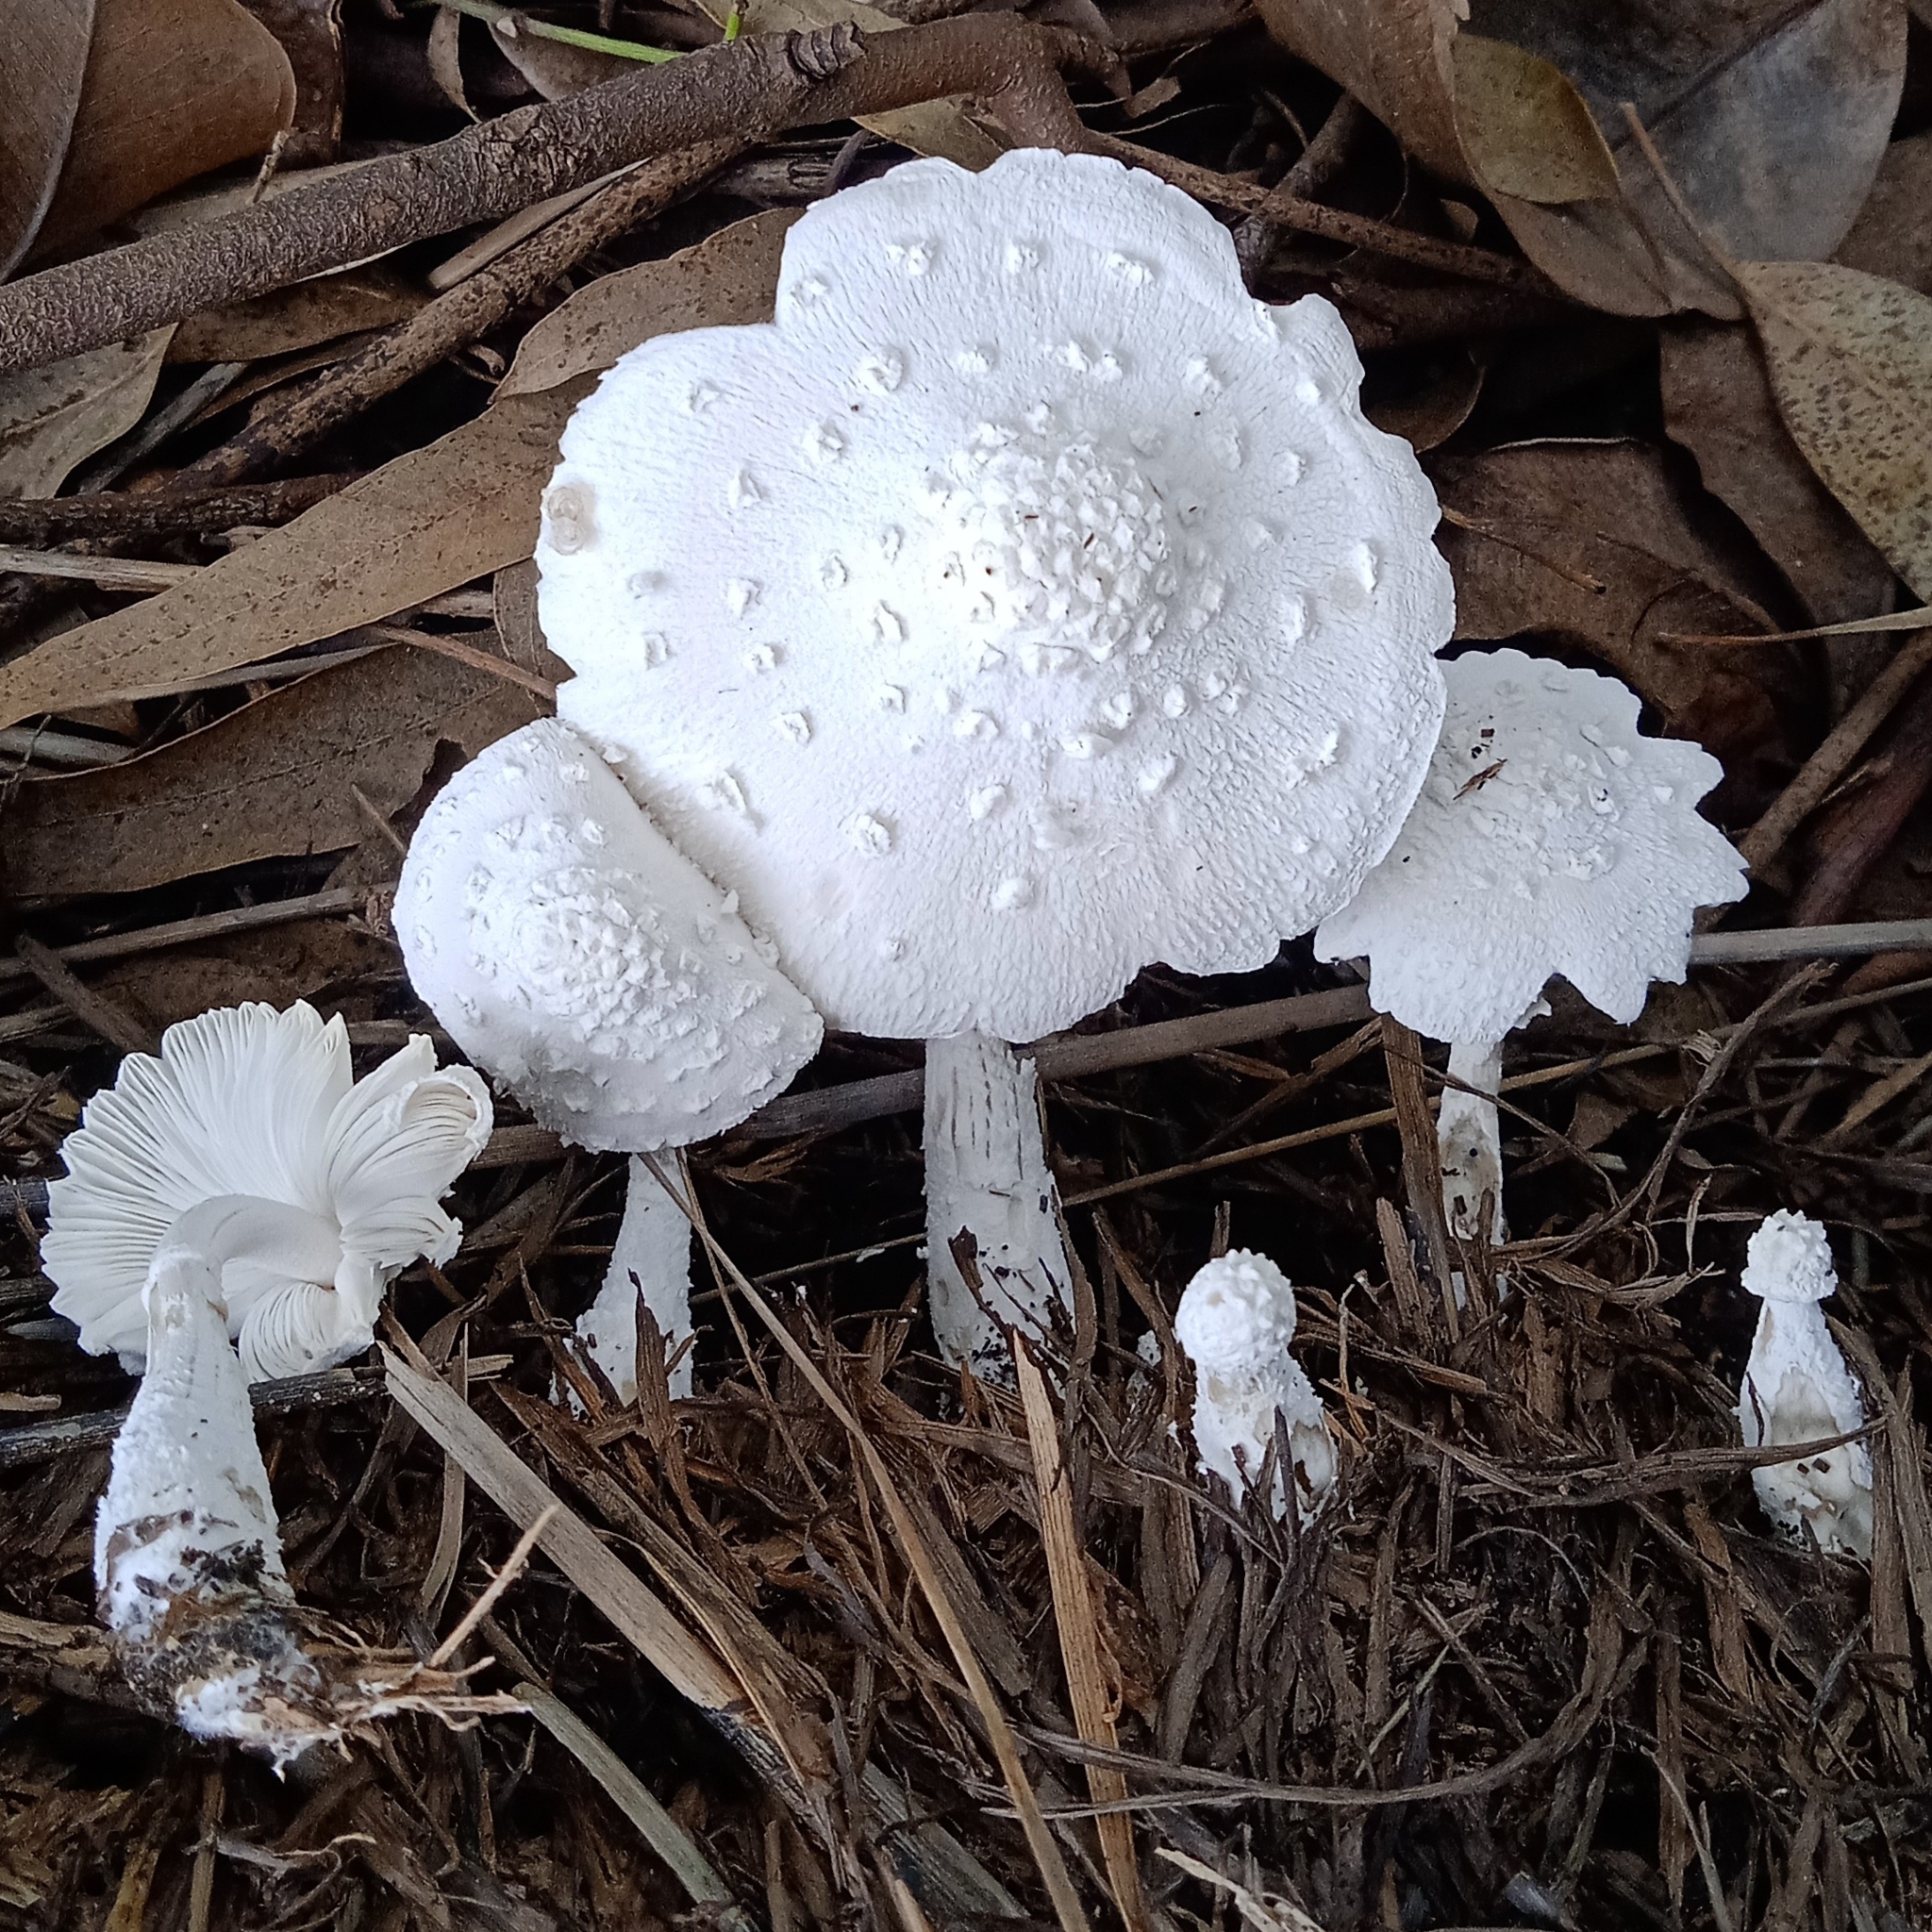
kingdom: Fungi
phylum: Basidiomycota
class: Agaricomycetes
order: Agaricales
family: Agaricaceae
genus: Leucocoprinus
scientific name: Leucocoprinus cretaceus
